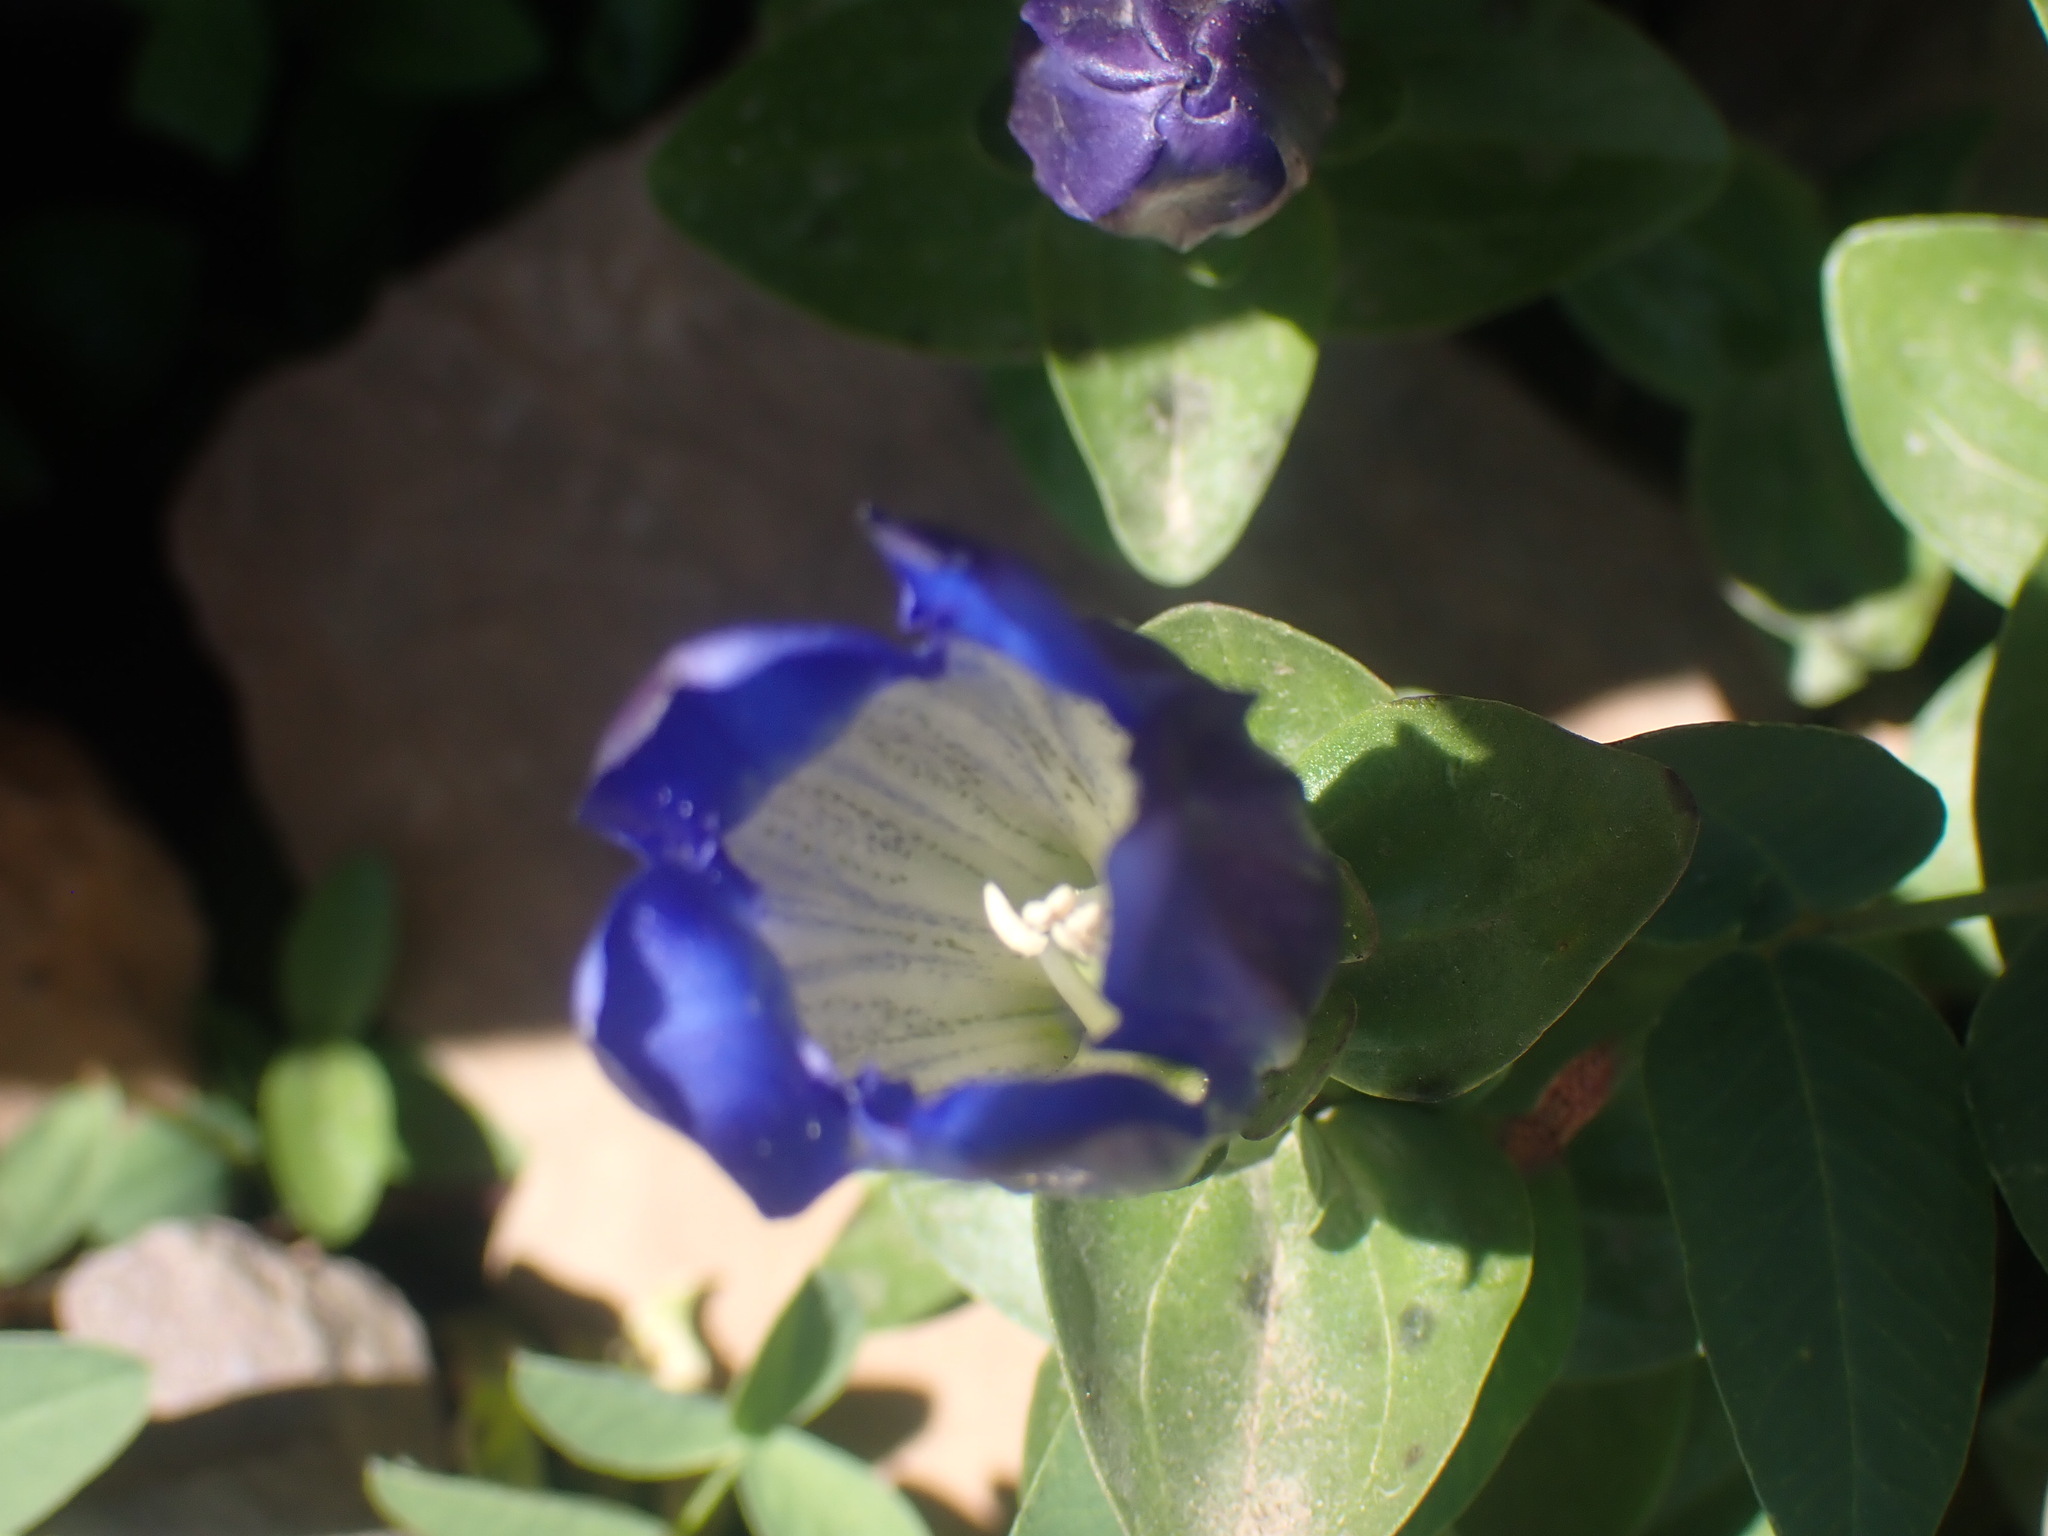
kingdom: Plantae
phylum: Tracheophyta
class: Magnoliopsida
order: Gentianales
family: Gentianaceae
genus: Gentiana
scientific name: Gentiana calycosa
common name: Rainier pleated gentian
